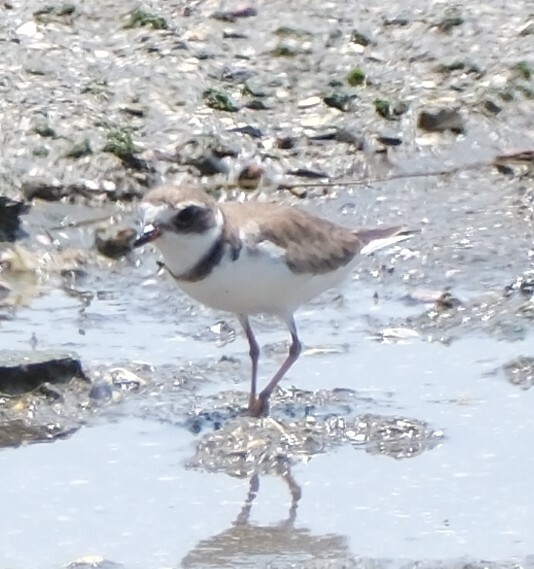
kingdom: Animalia
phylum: Chordata
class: Aves
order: Charadriiformes
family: Charadriidae
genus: Charadrius
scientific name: Charadrius semipalmatus
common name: Semipalmated plover
